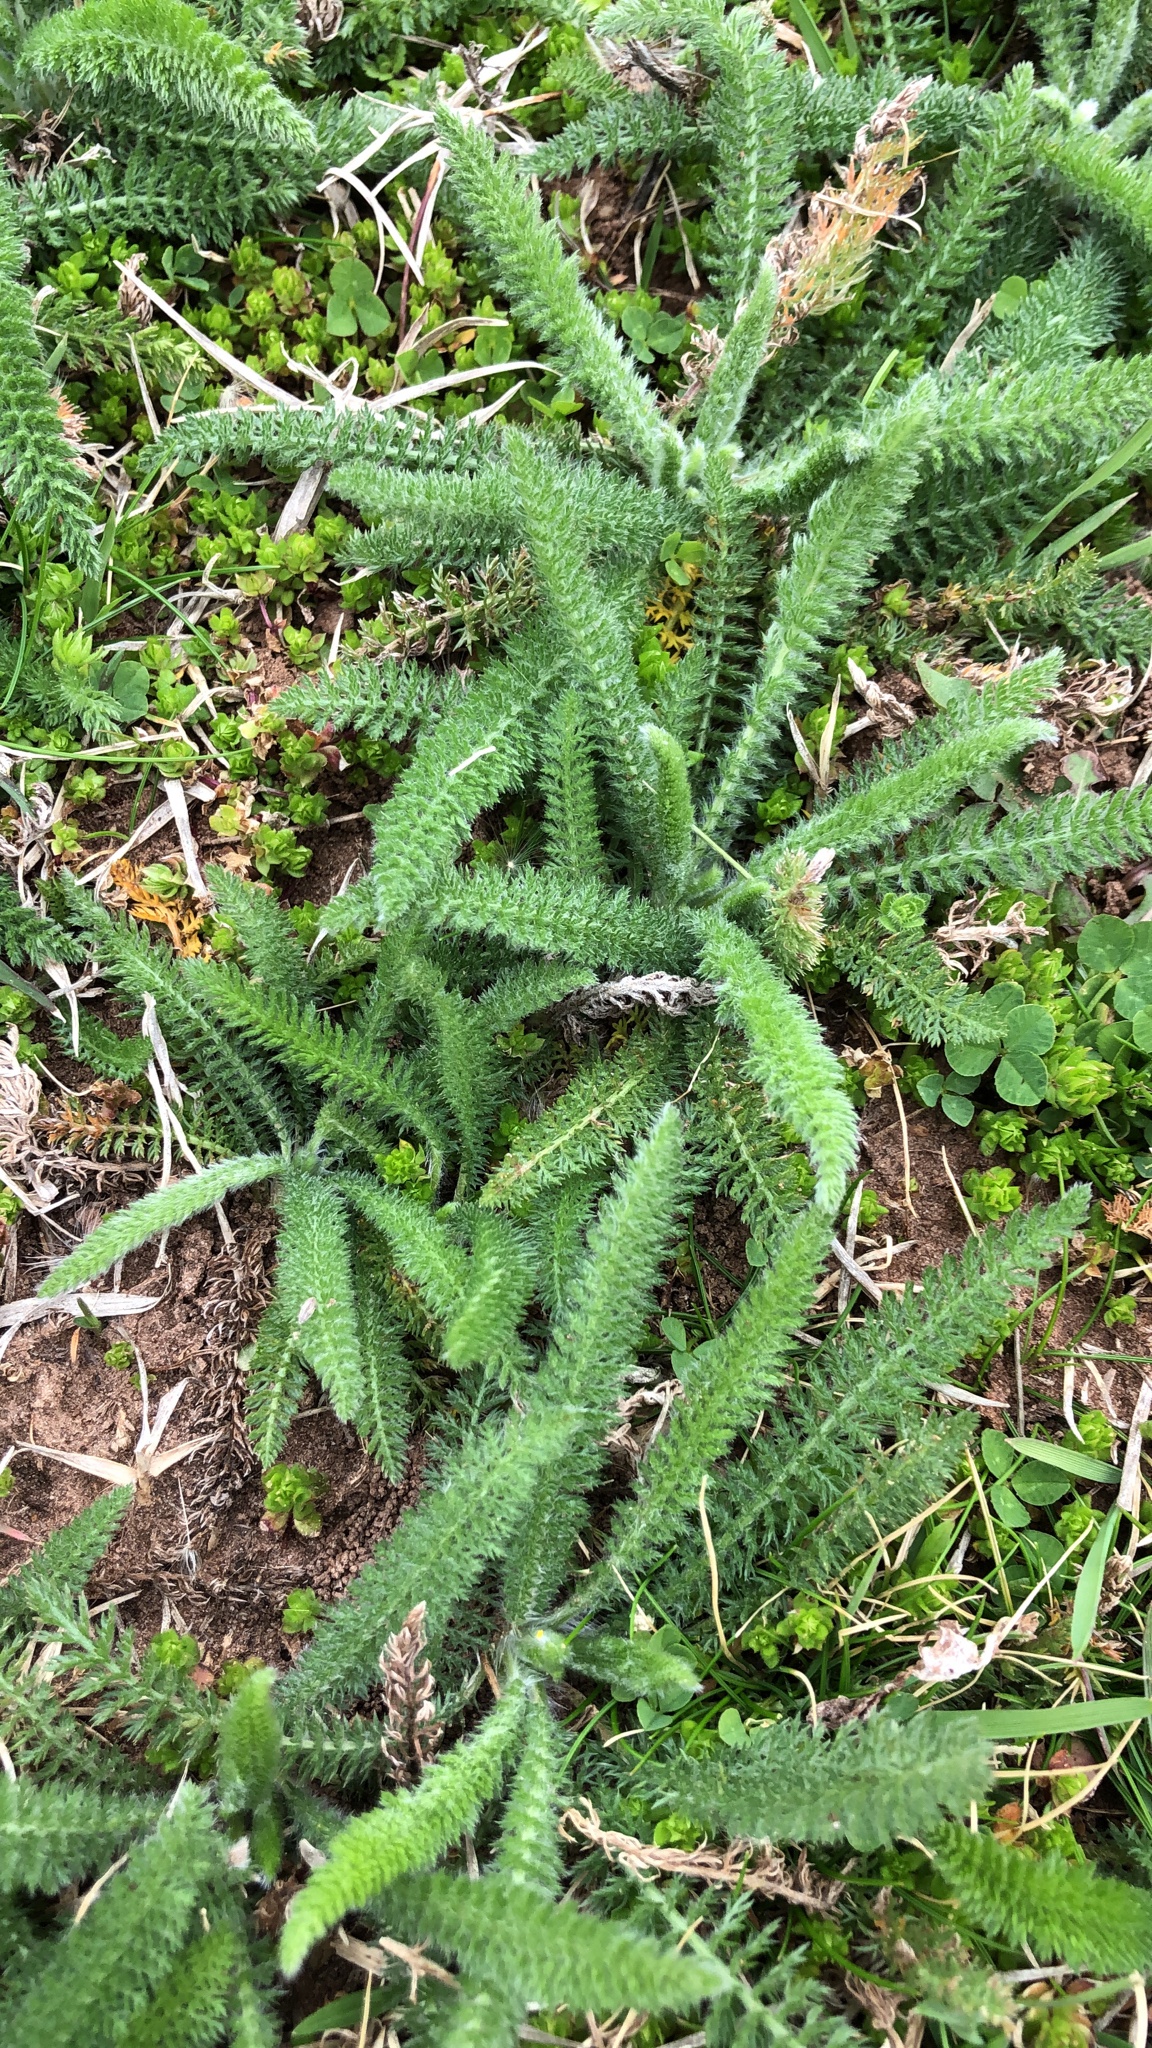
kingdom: Plantae
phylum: Tracheophyta
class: Magnoliopsida
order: Asterales
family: Asteraceae
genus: Achillea
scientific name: Achillea millefolium
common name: Yarrow
